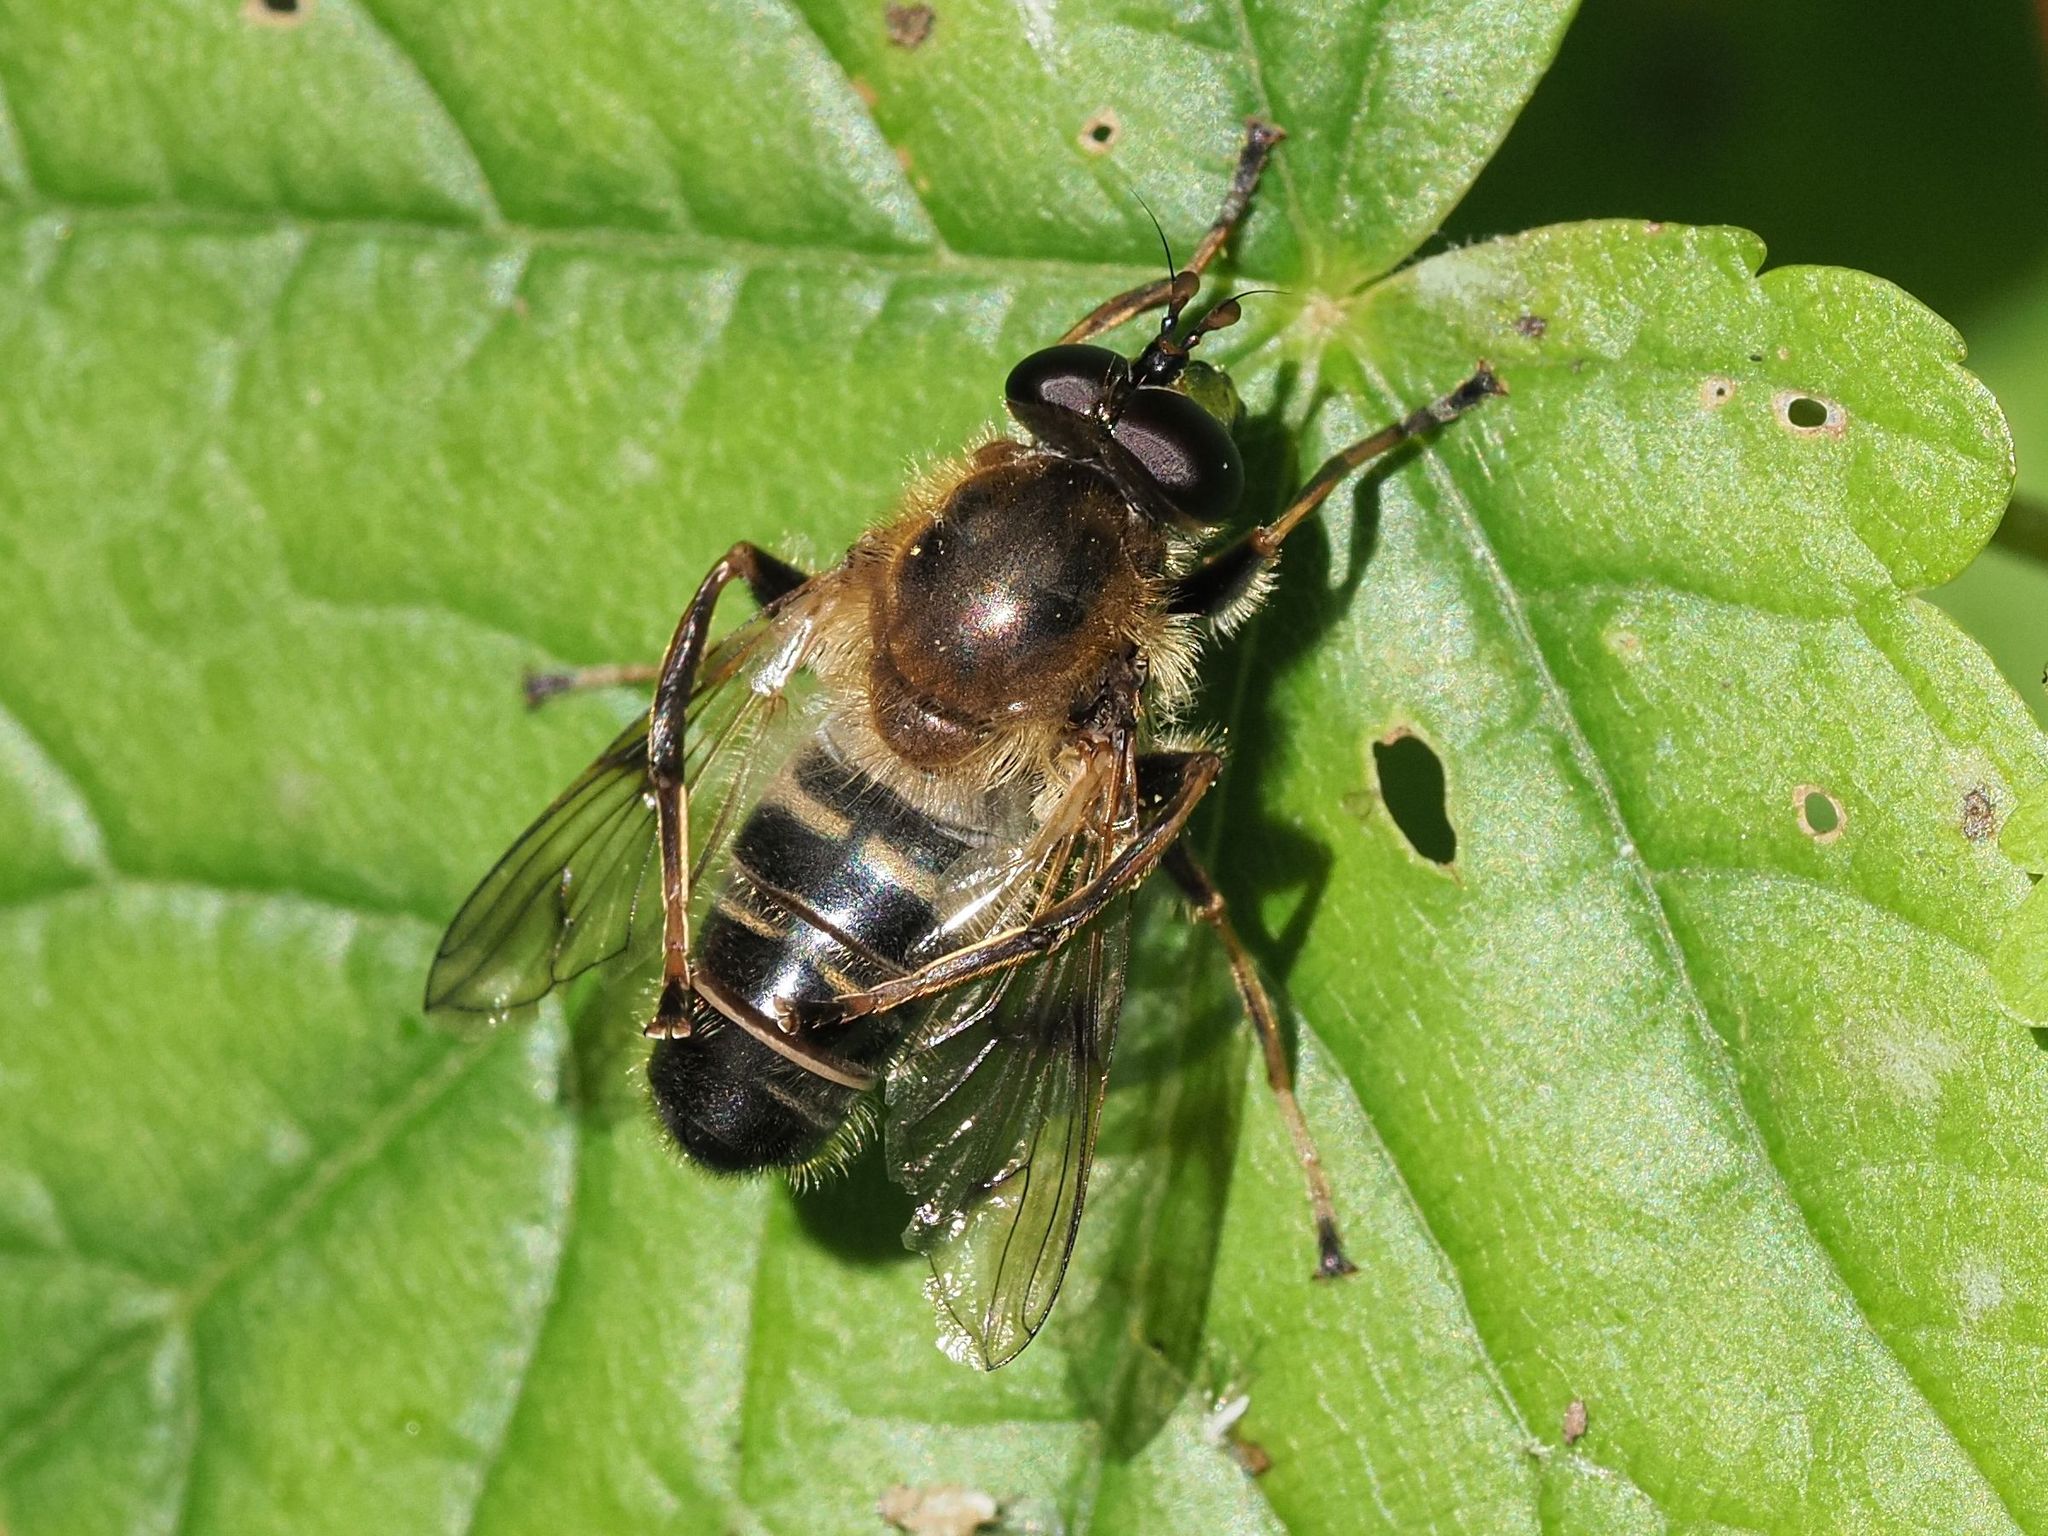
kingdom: Animalia
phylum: Arthropoda
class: Insecta
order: Diptera
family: Syrphidae
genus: Criorhina
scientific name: Criorhina asilica
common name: Pale-banded bear hoverfly
